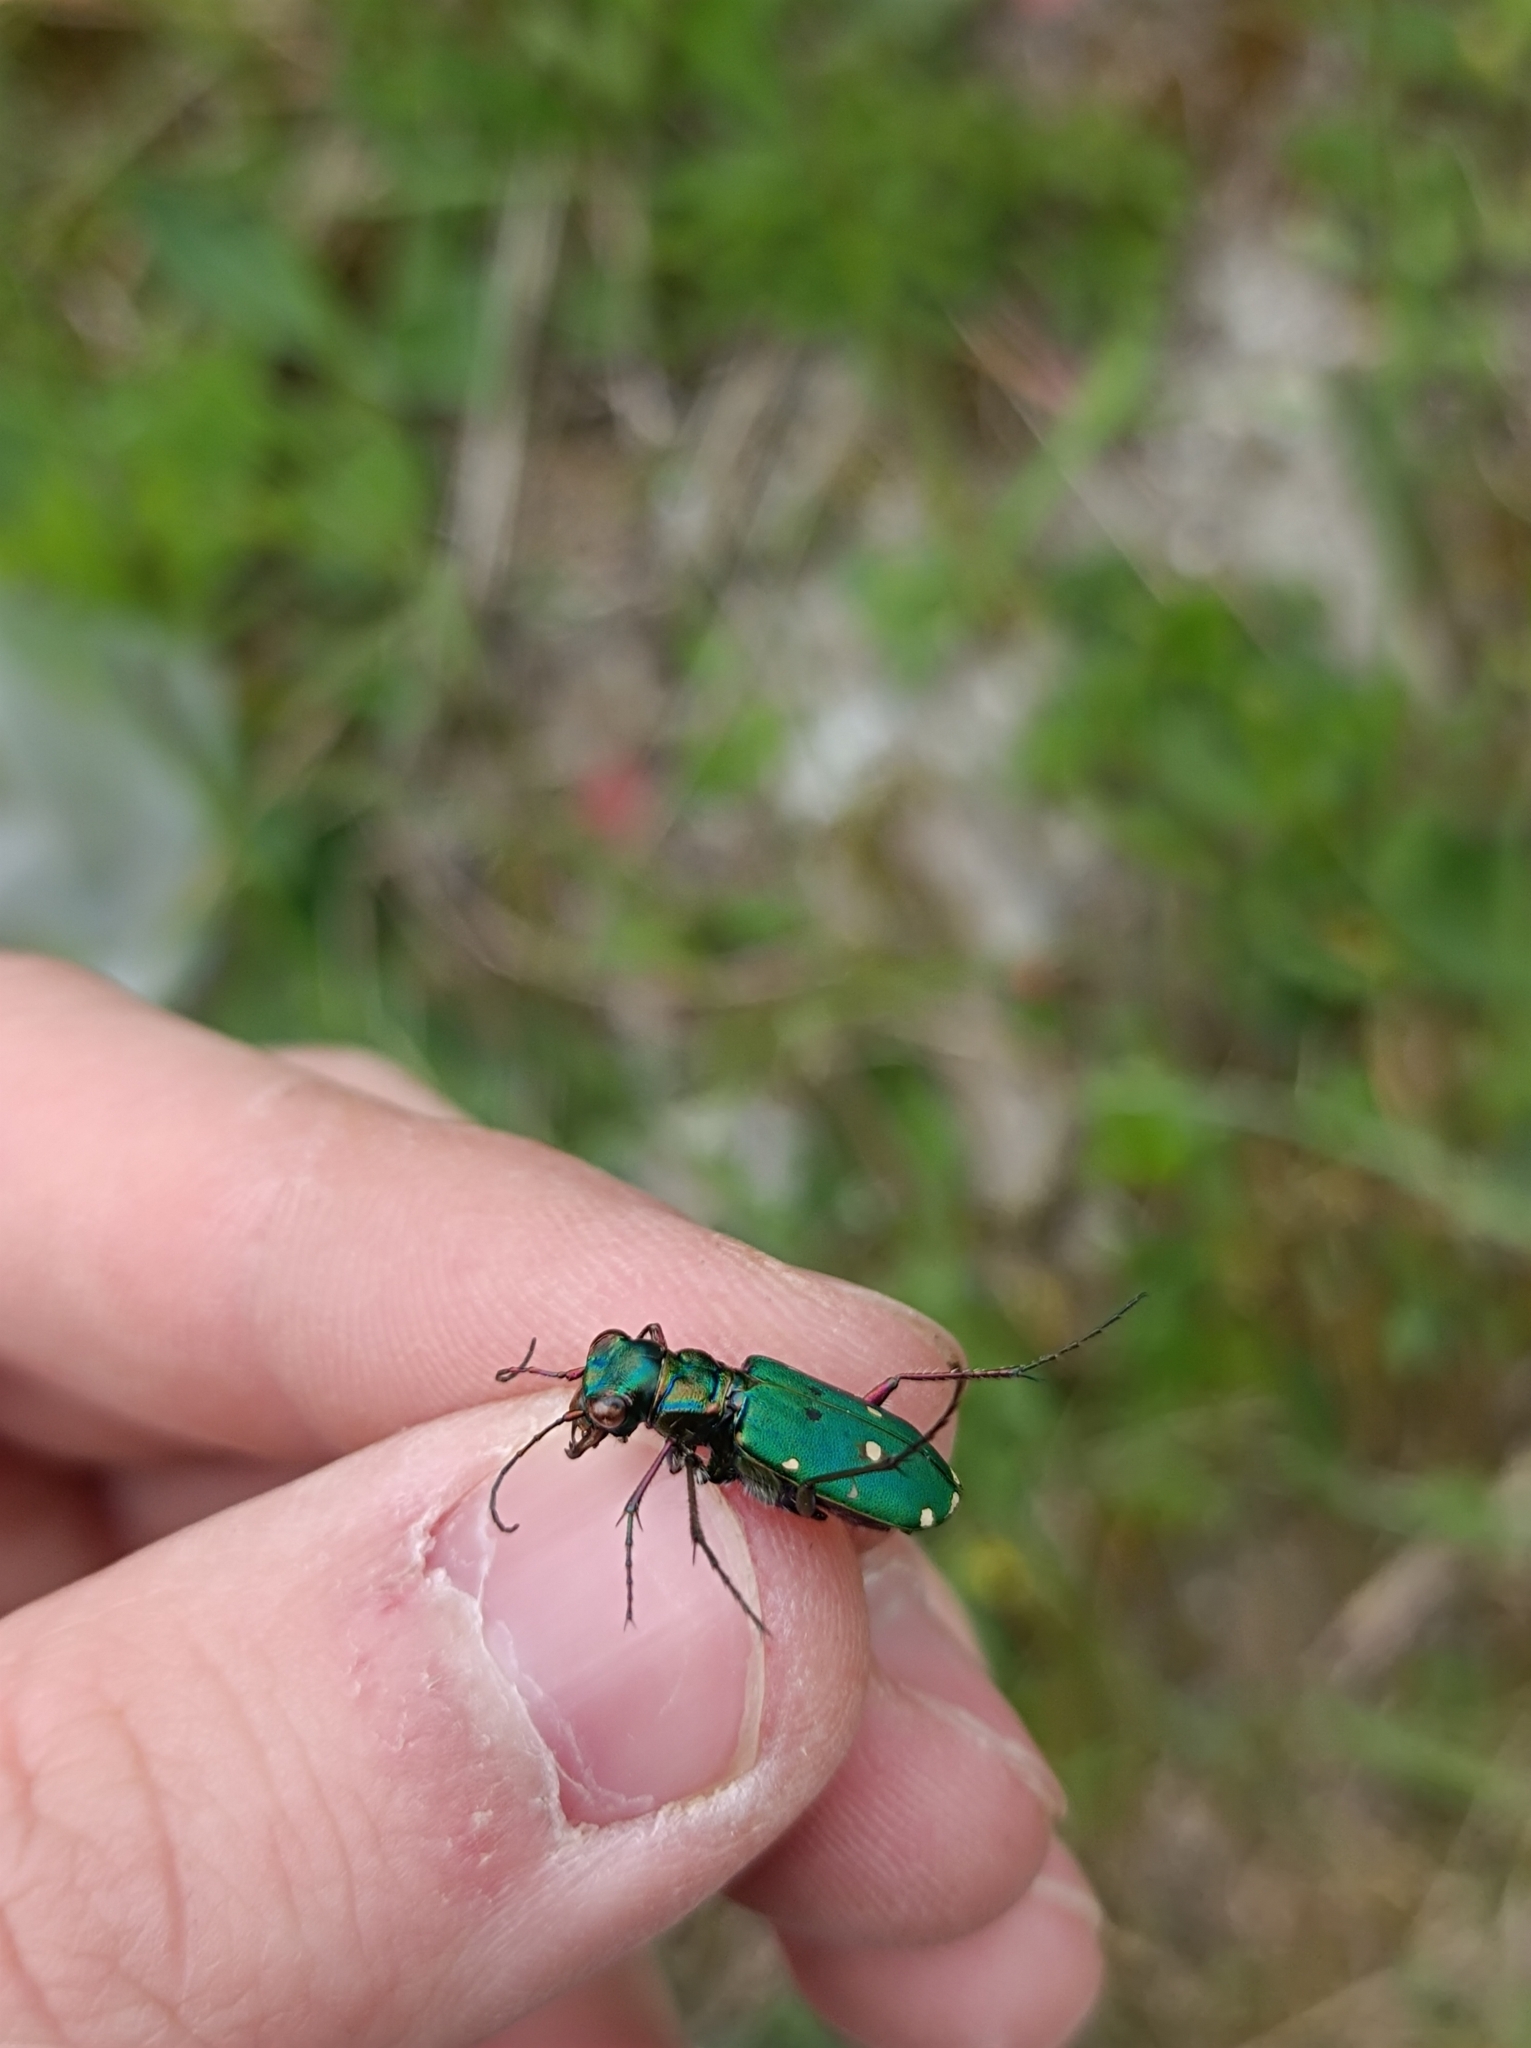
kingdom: Animalia
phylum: Arthropoda
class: Insecta
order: Coleoptera
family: Carabidae
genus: Cicindela
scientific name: Cicindela campestris
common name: Common tiger beetle
